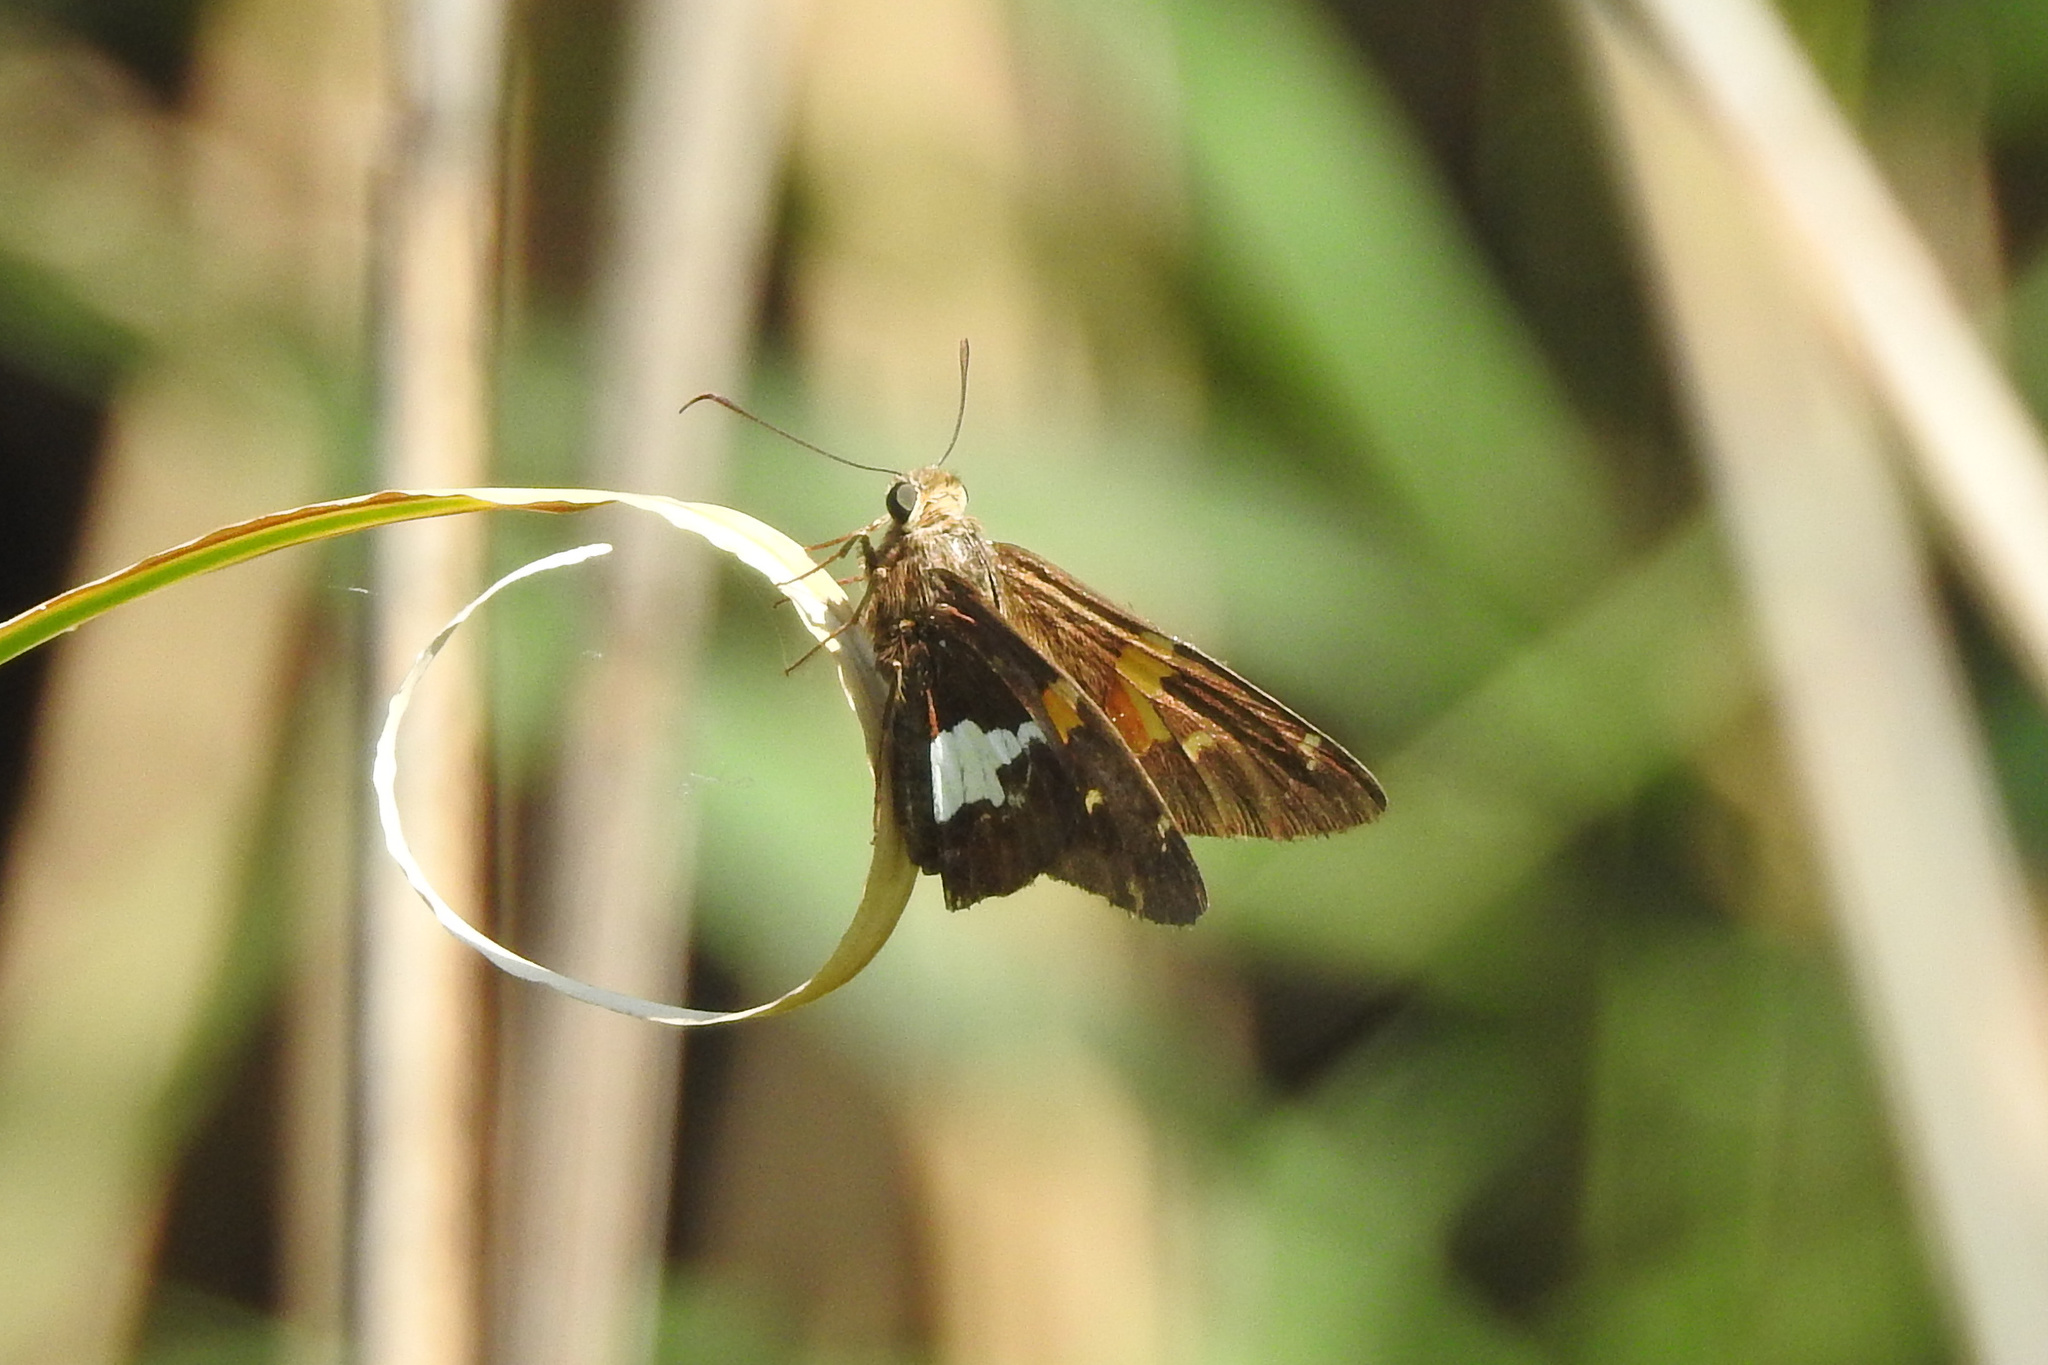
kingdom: Animalia
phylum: Arthropoda
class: Insecta
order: Lepidoptera
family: Hesperiidae
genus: Epargyreus
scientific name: Epargyreus clarus
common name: Silver-spotted skipper
